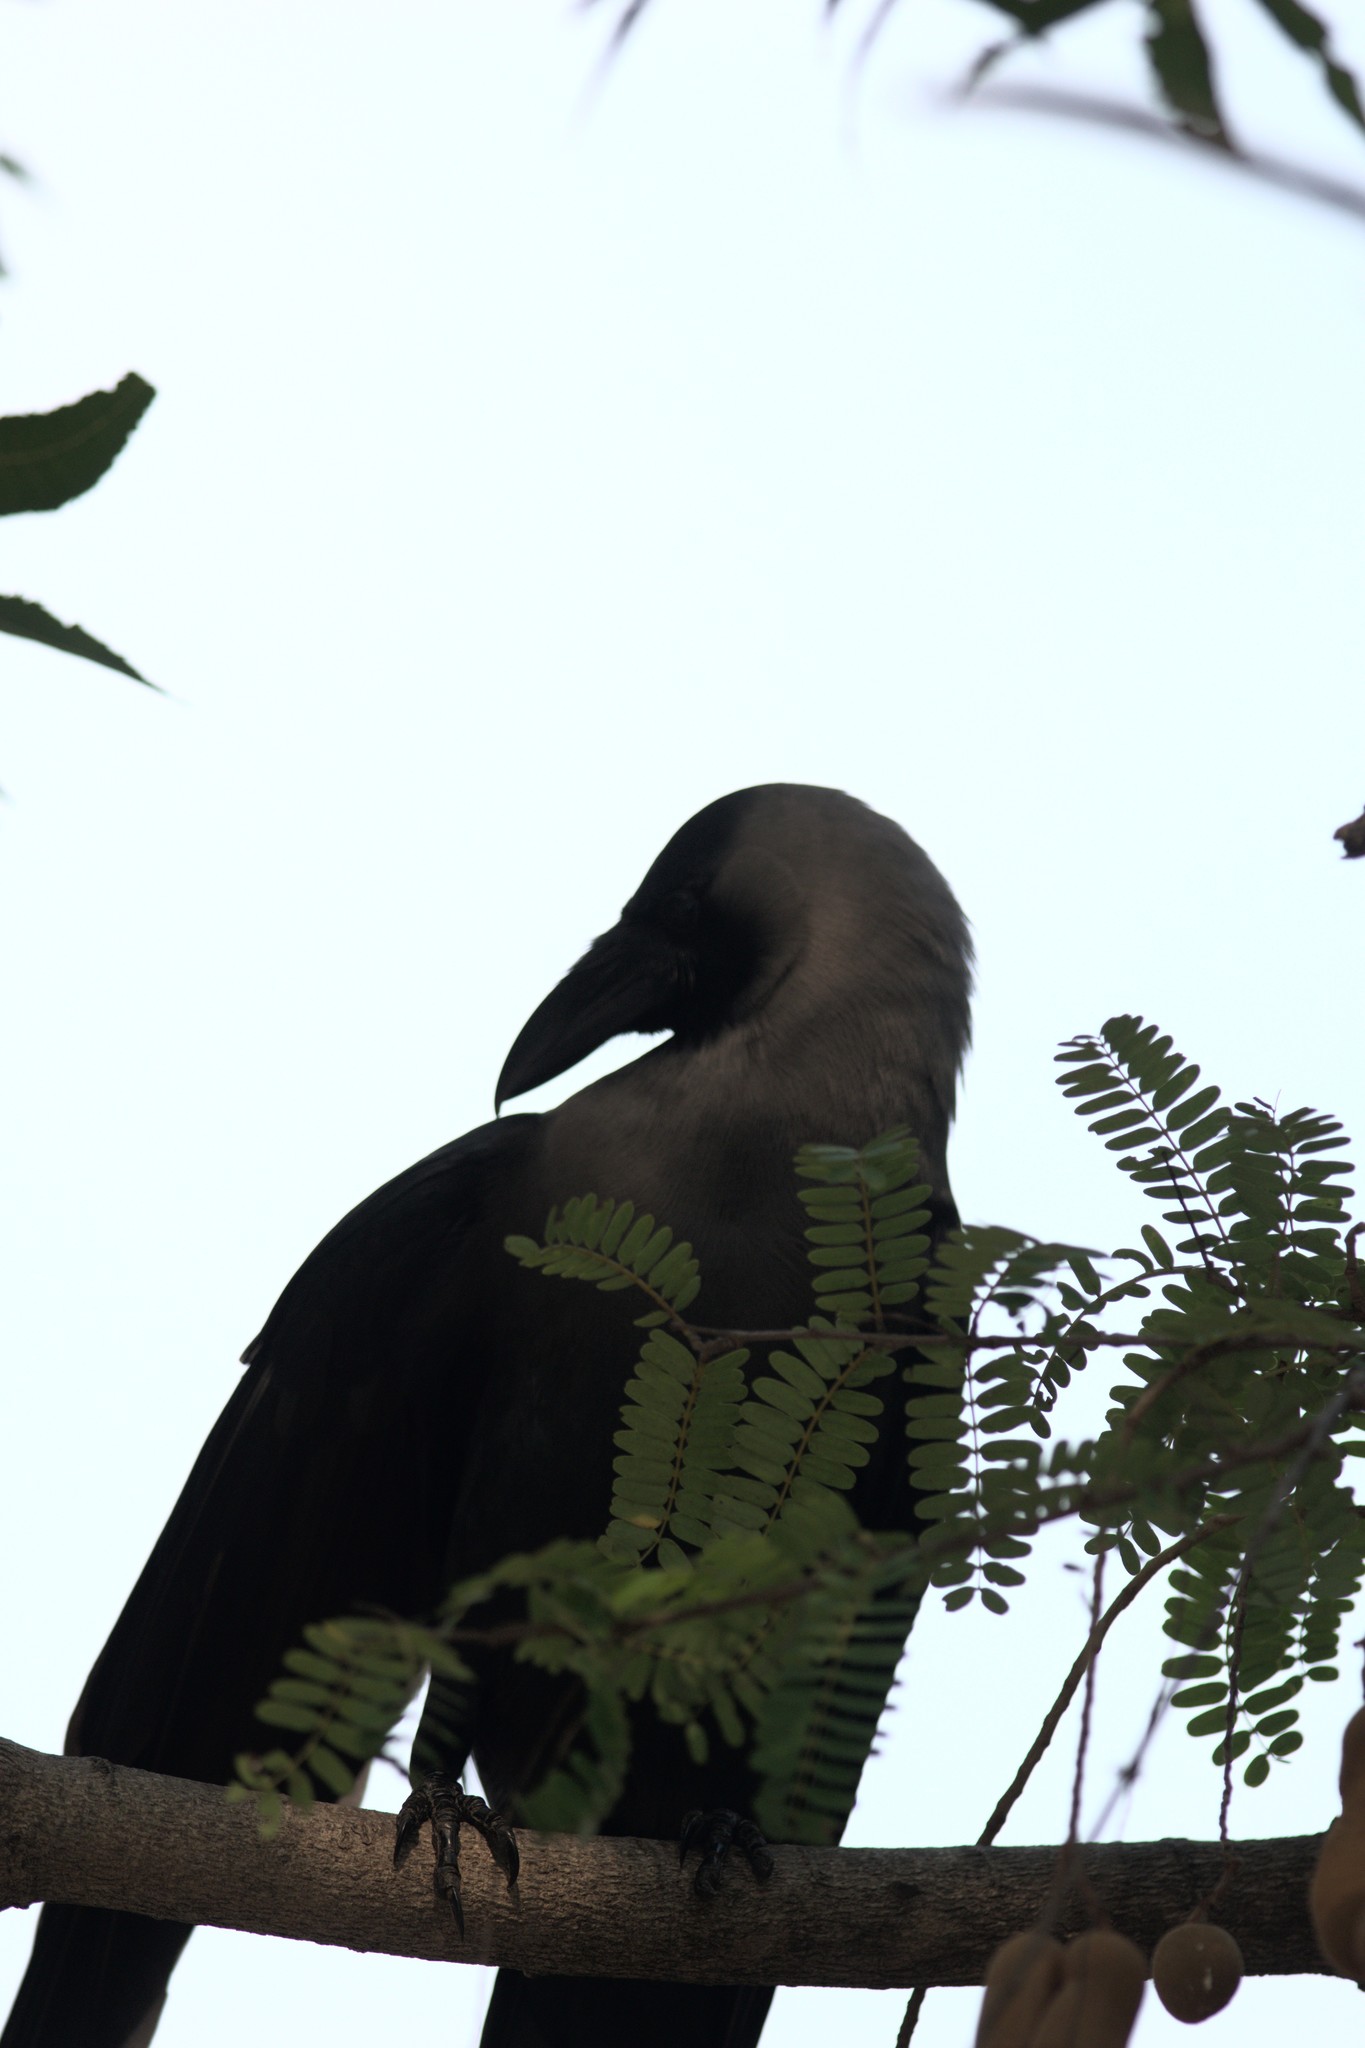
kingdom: Animalia
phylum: Chordata
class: Aves
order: Passeriformes
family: Corvidae
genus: Corvus
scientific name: Corvus splendens
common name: House crow
